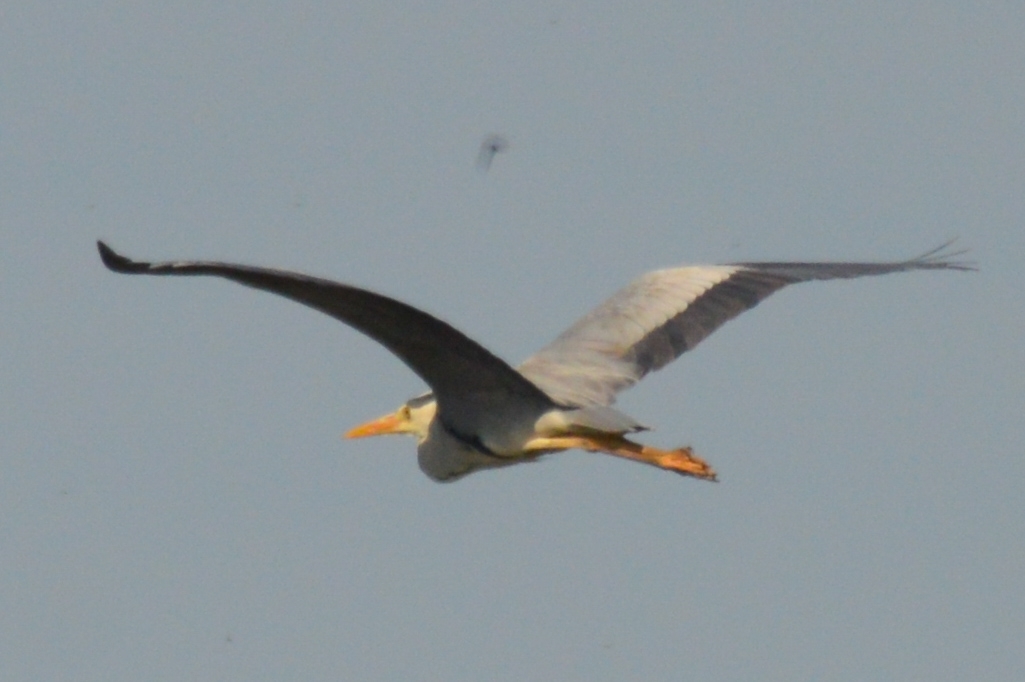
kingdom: Animalia
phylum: Chordata
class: Aves
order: Pelecaniformes
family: Ardeidae
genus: Ardea
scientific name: Ardea cinerea
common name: Grey heron
